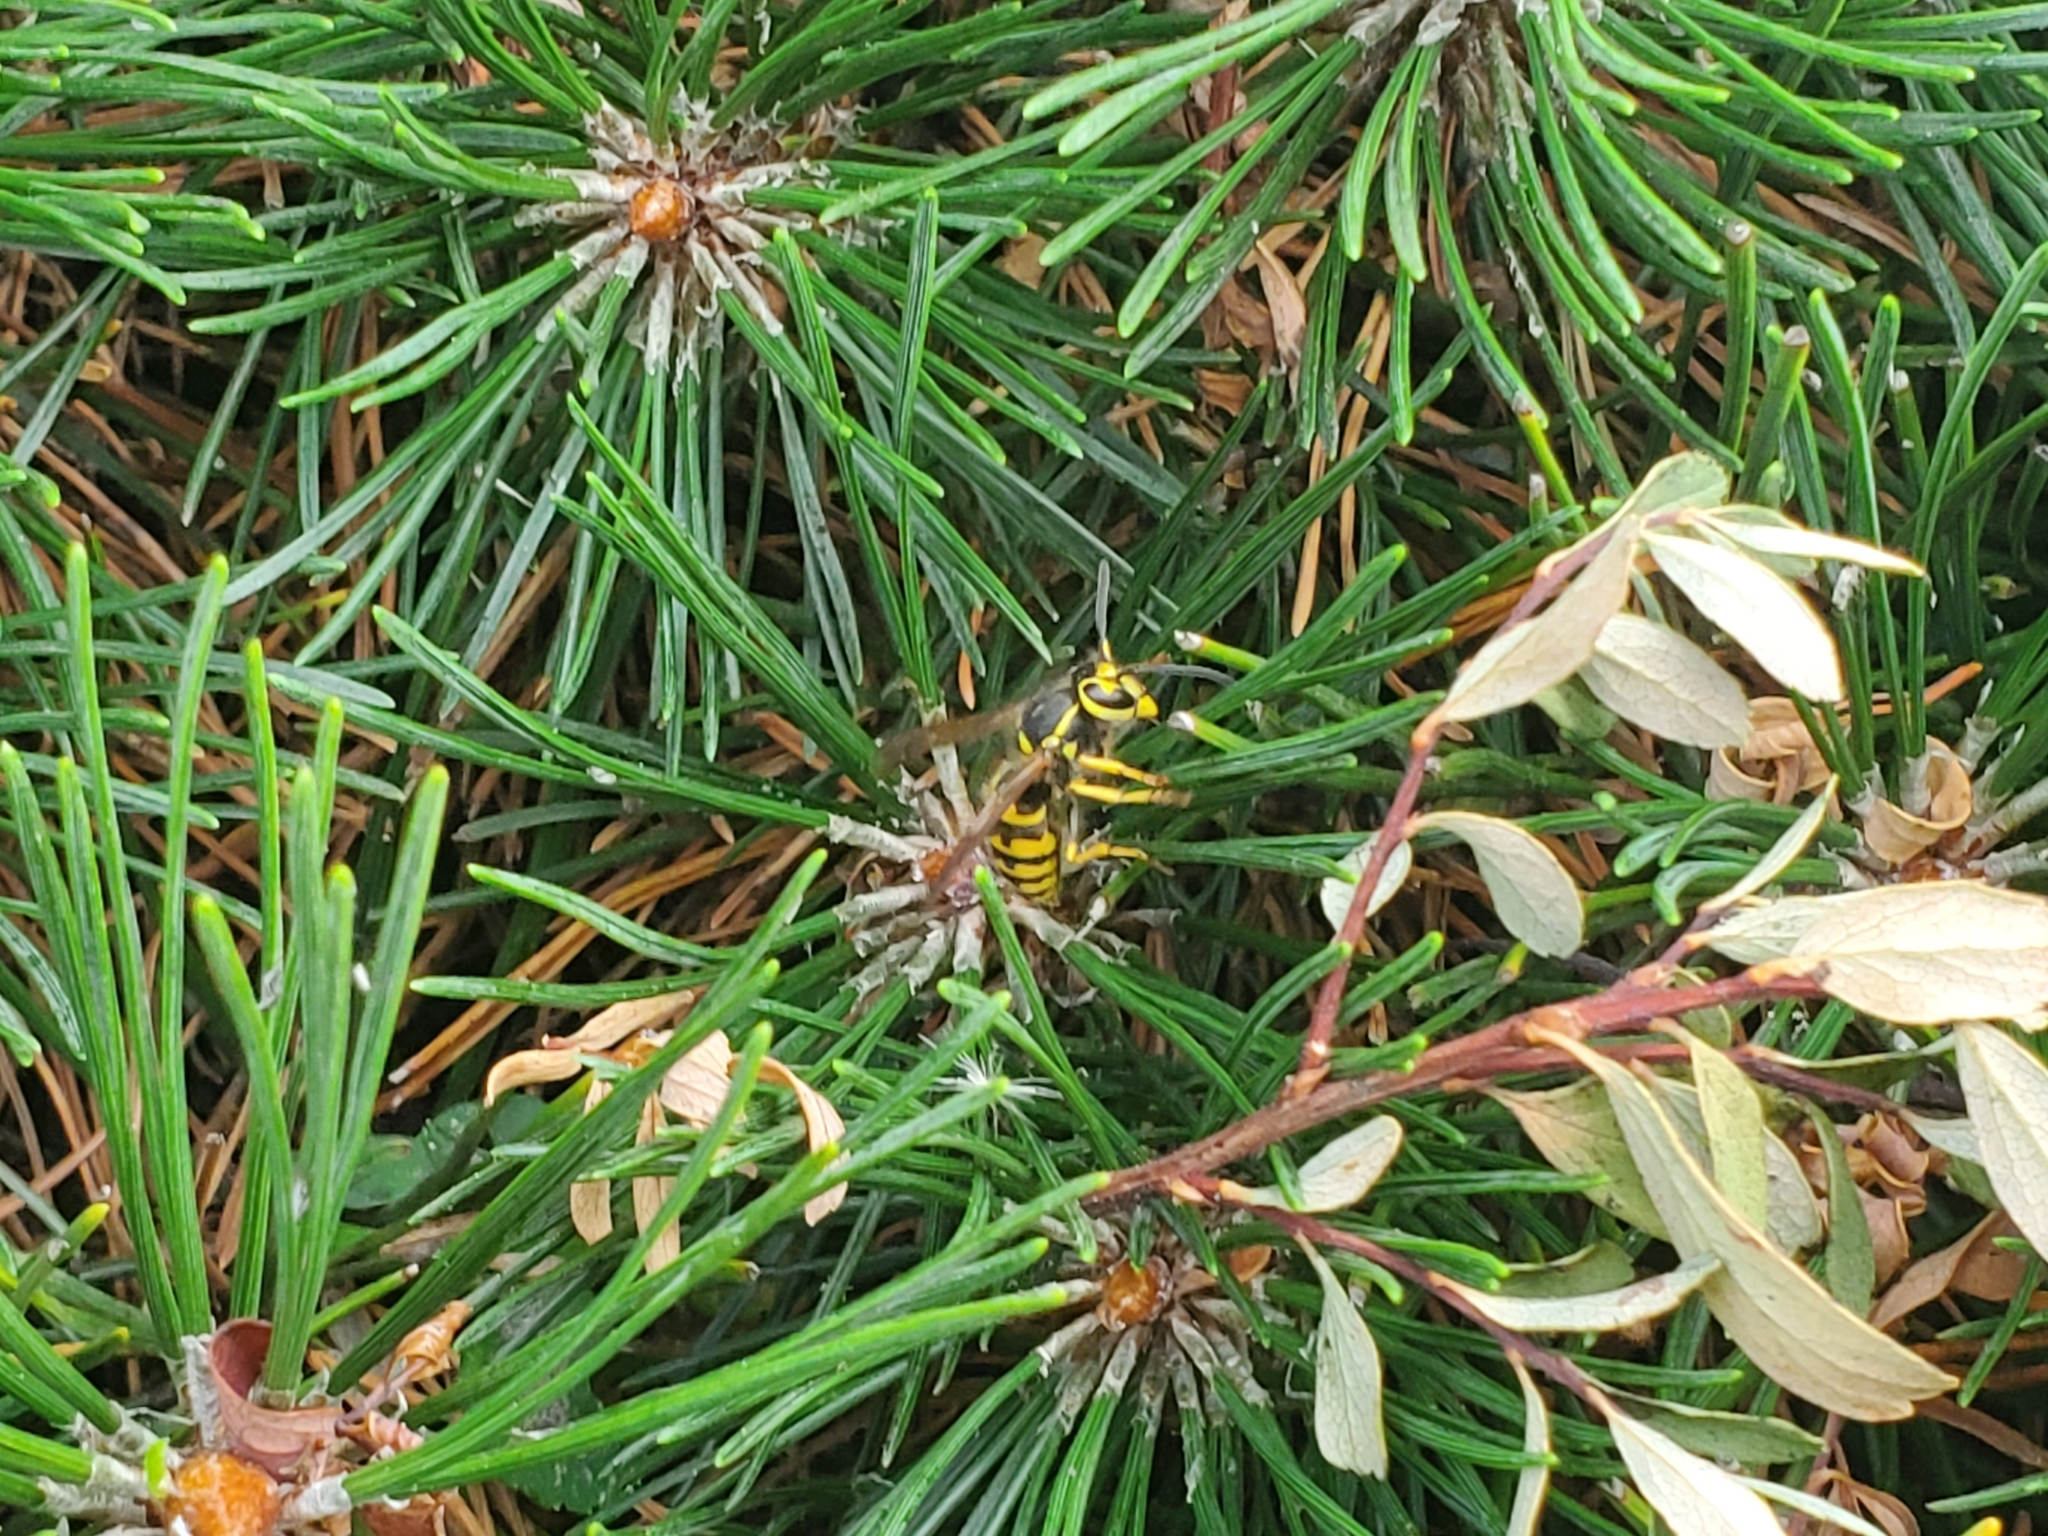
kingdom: Animalia
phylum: Arthropoda
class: Insecta
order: Hymenoptera
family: Vespidae
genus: Vespula
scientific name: Vespula pensylvanica
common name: Western yellowjacket
